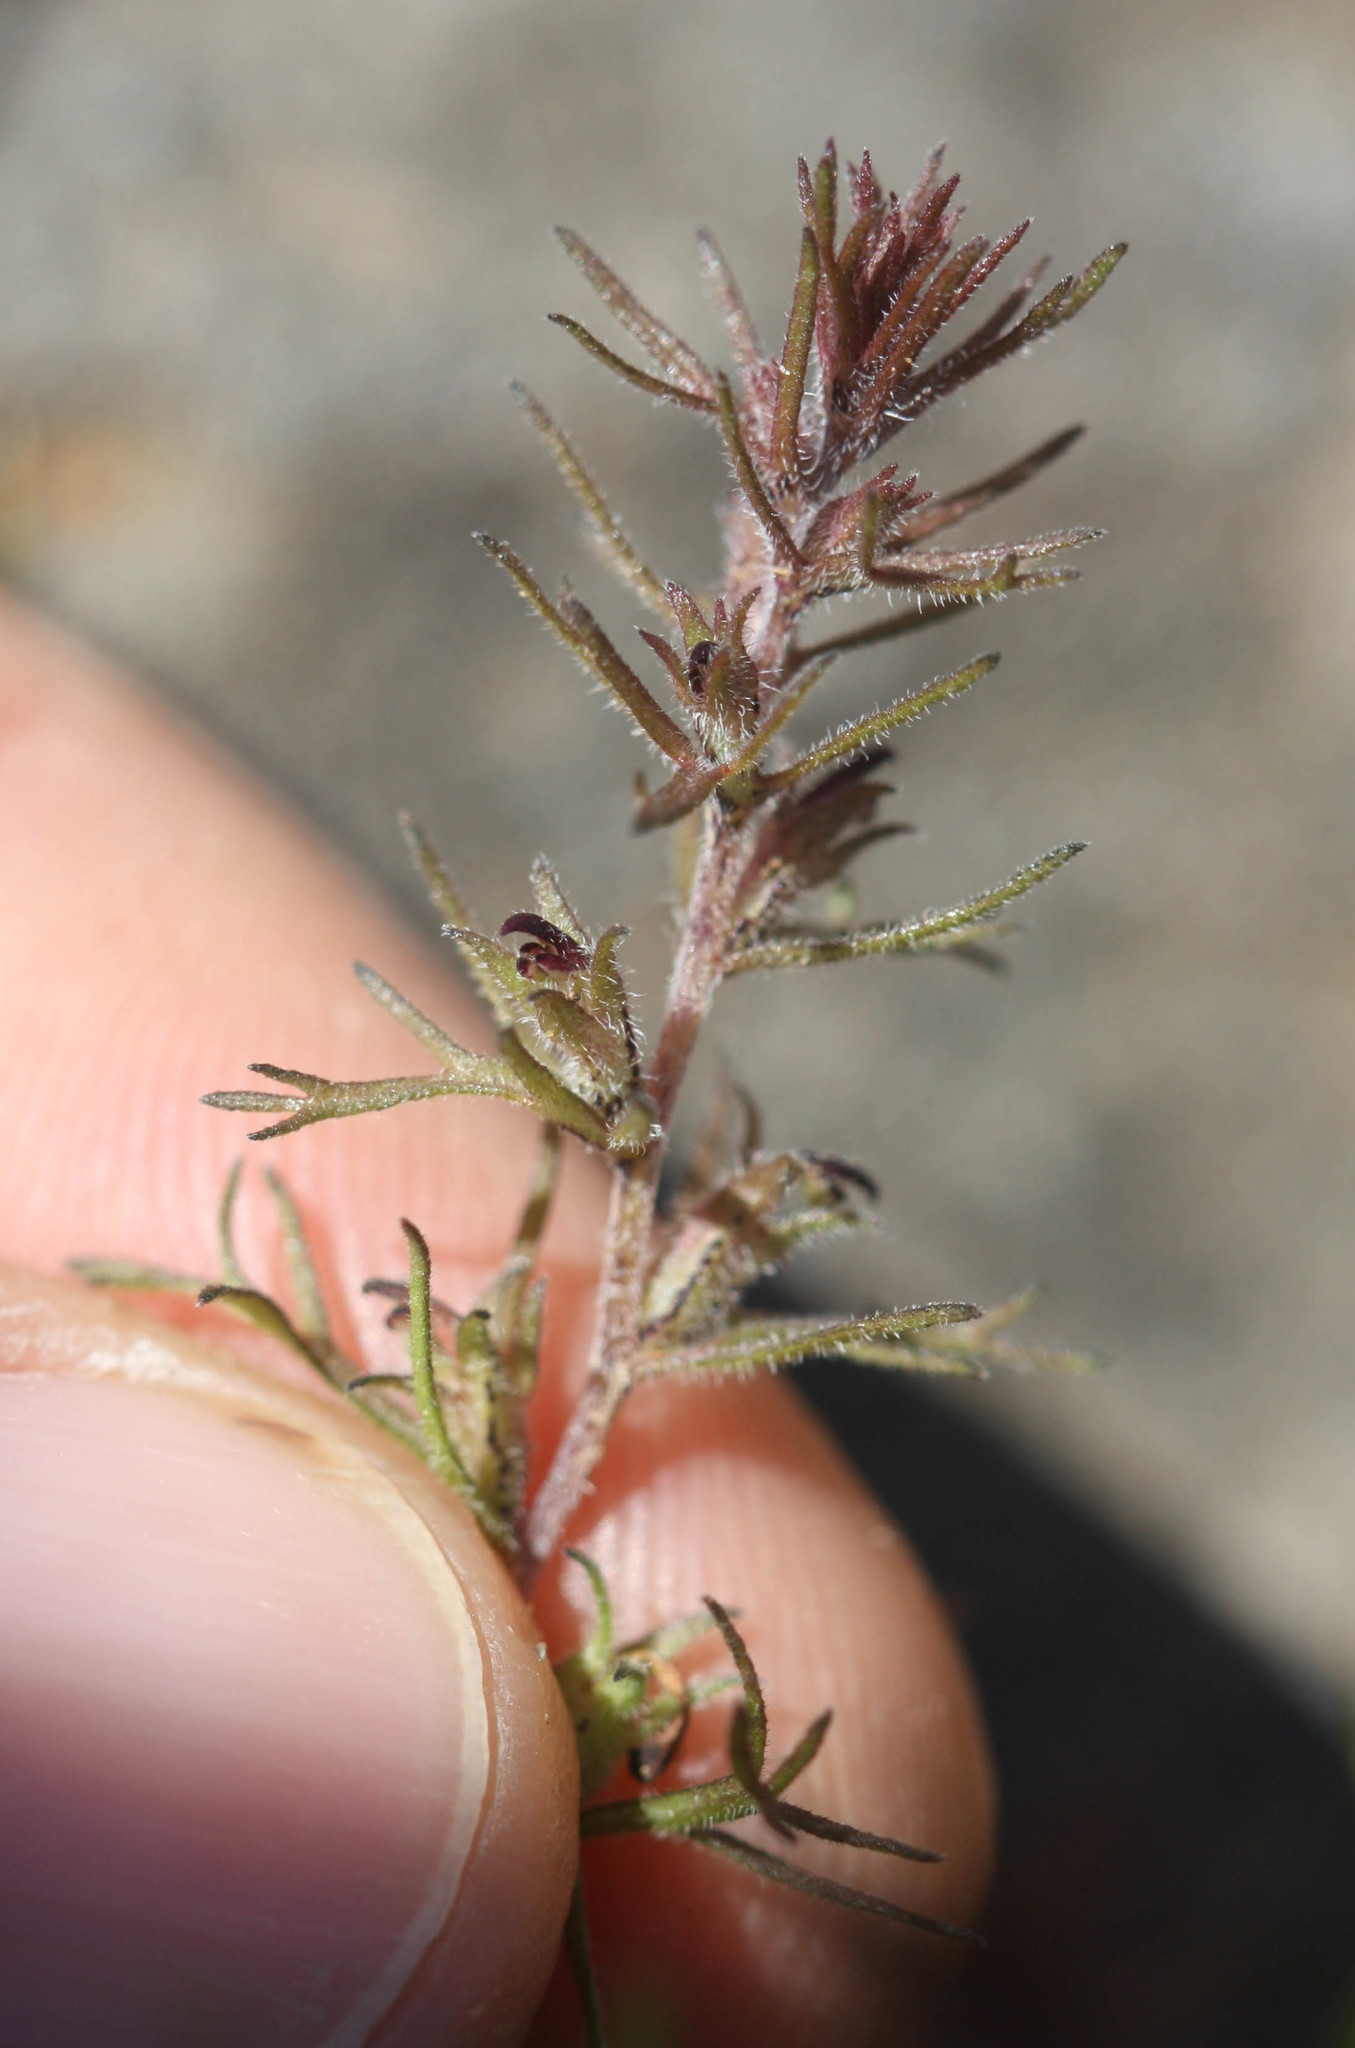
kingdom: Plantae
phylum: Tracheophyta
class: Magnoliopsida
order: Lamiales
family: Orobanchaceae
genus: Triphysaria
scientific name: Triphysaria pusilla
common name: Dwarf false owl-clover
